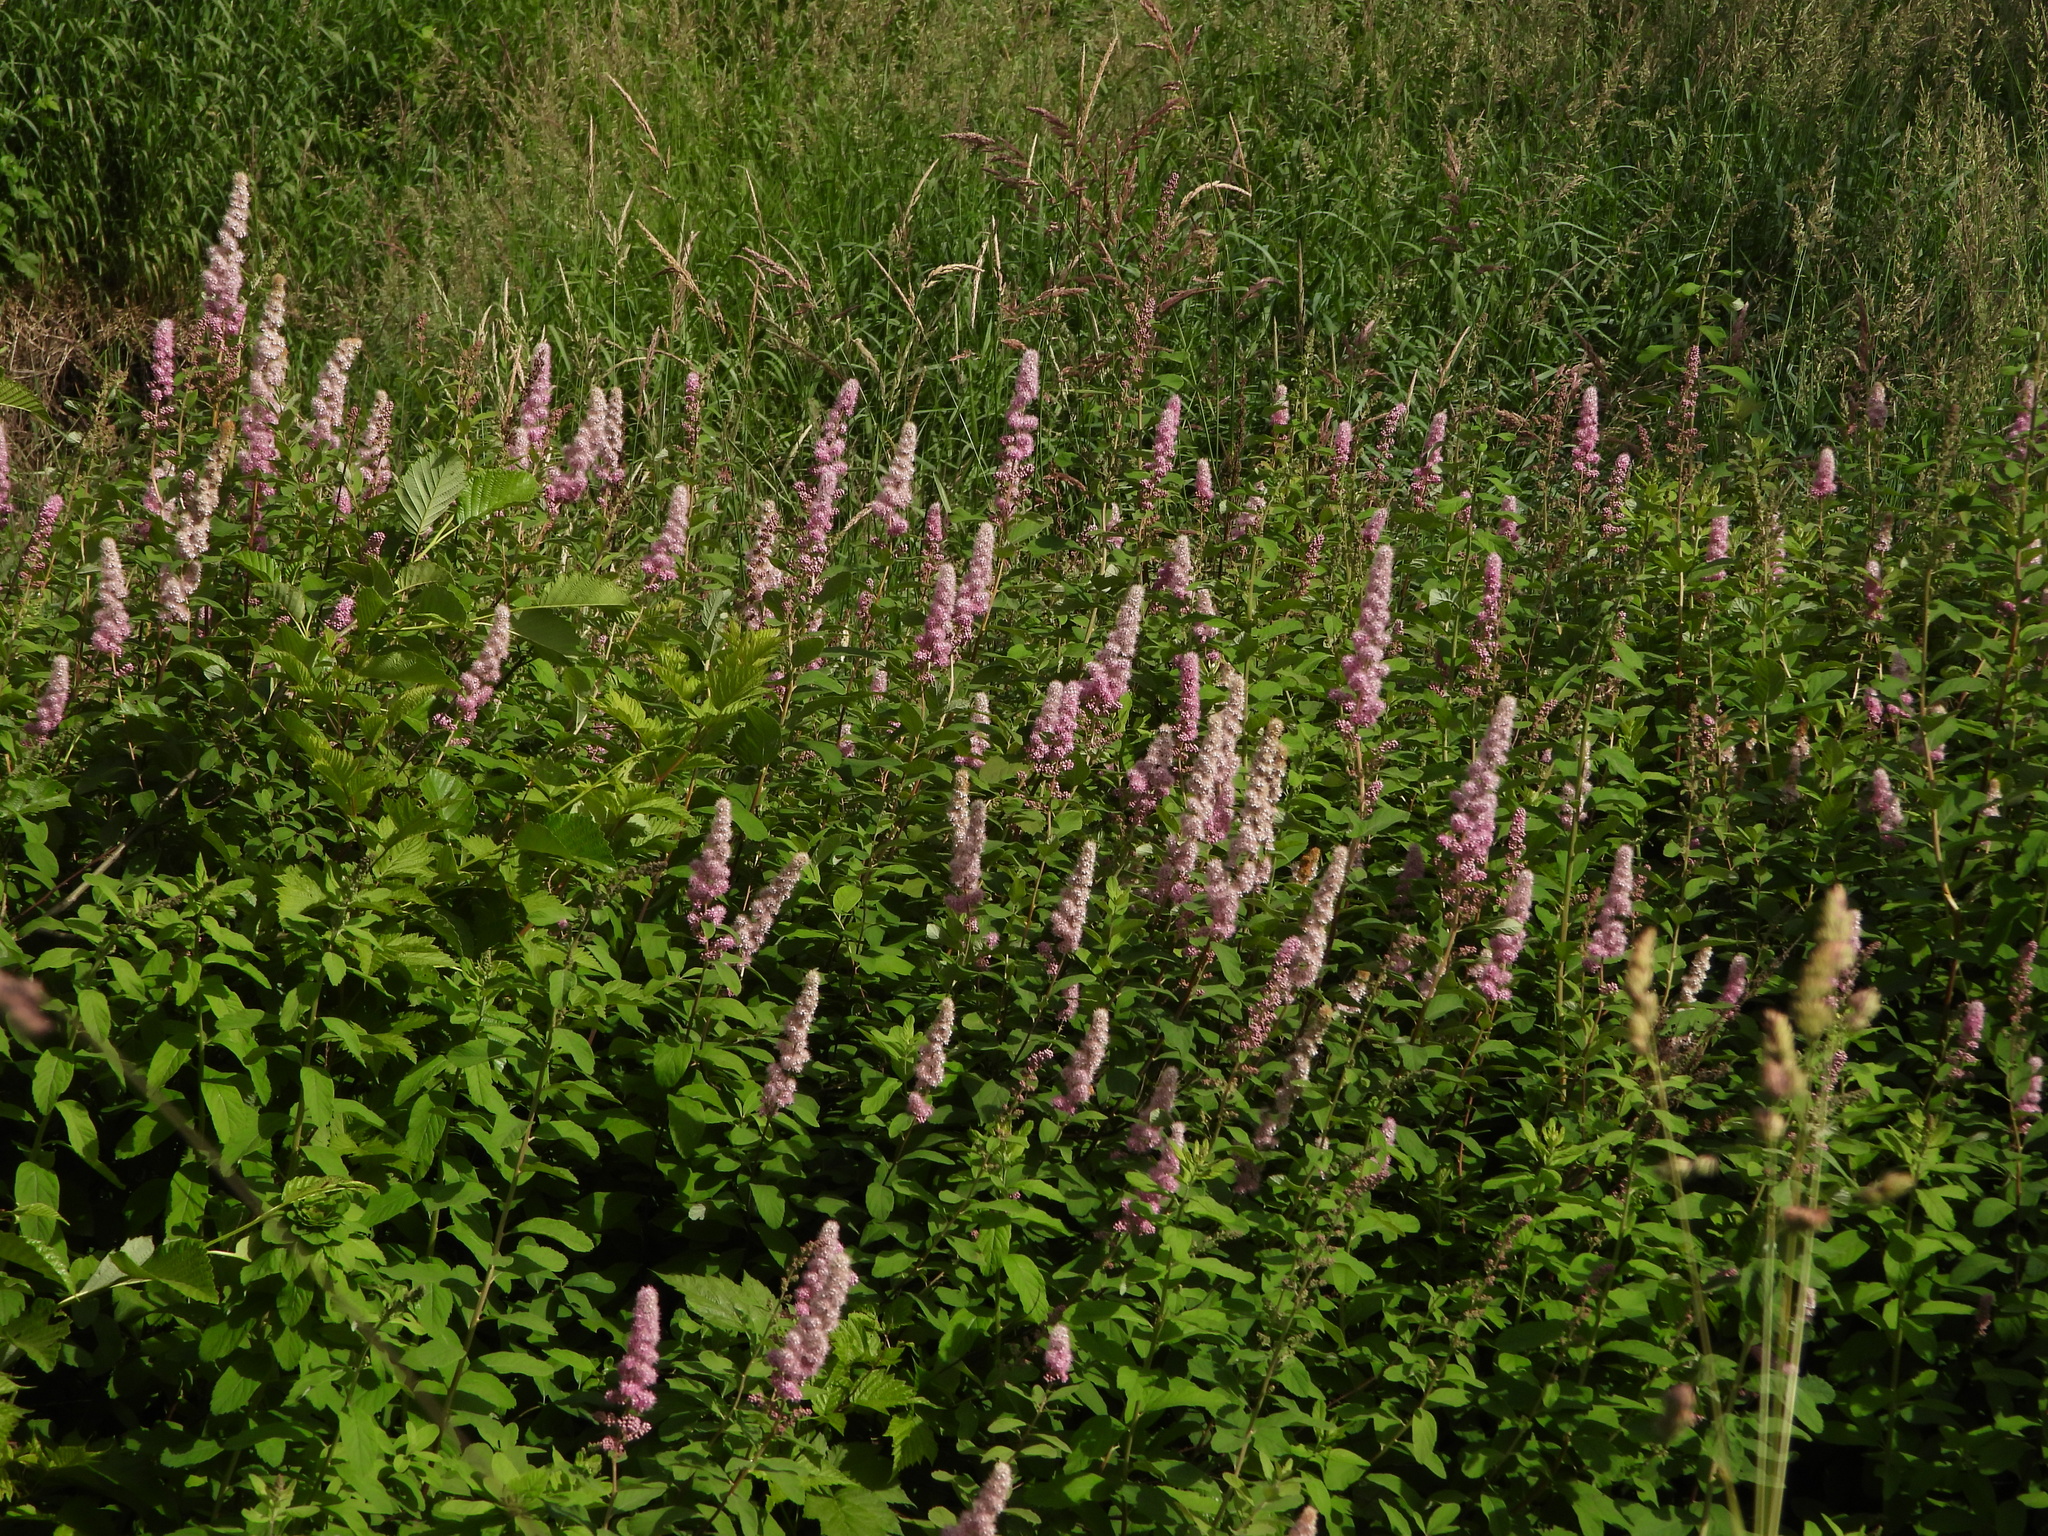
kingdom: Plantae
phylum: Tracheophyta
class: Magnoliopsida
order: Rosales
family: Rosaceae
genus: Spiraea
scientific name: Spiraea douglasii
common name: Steeplebush
